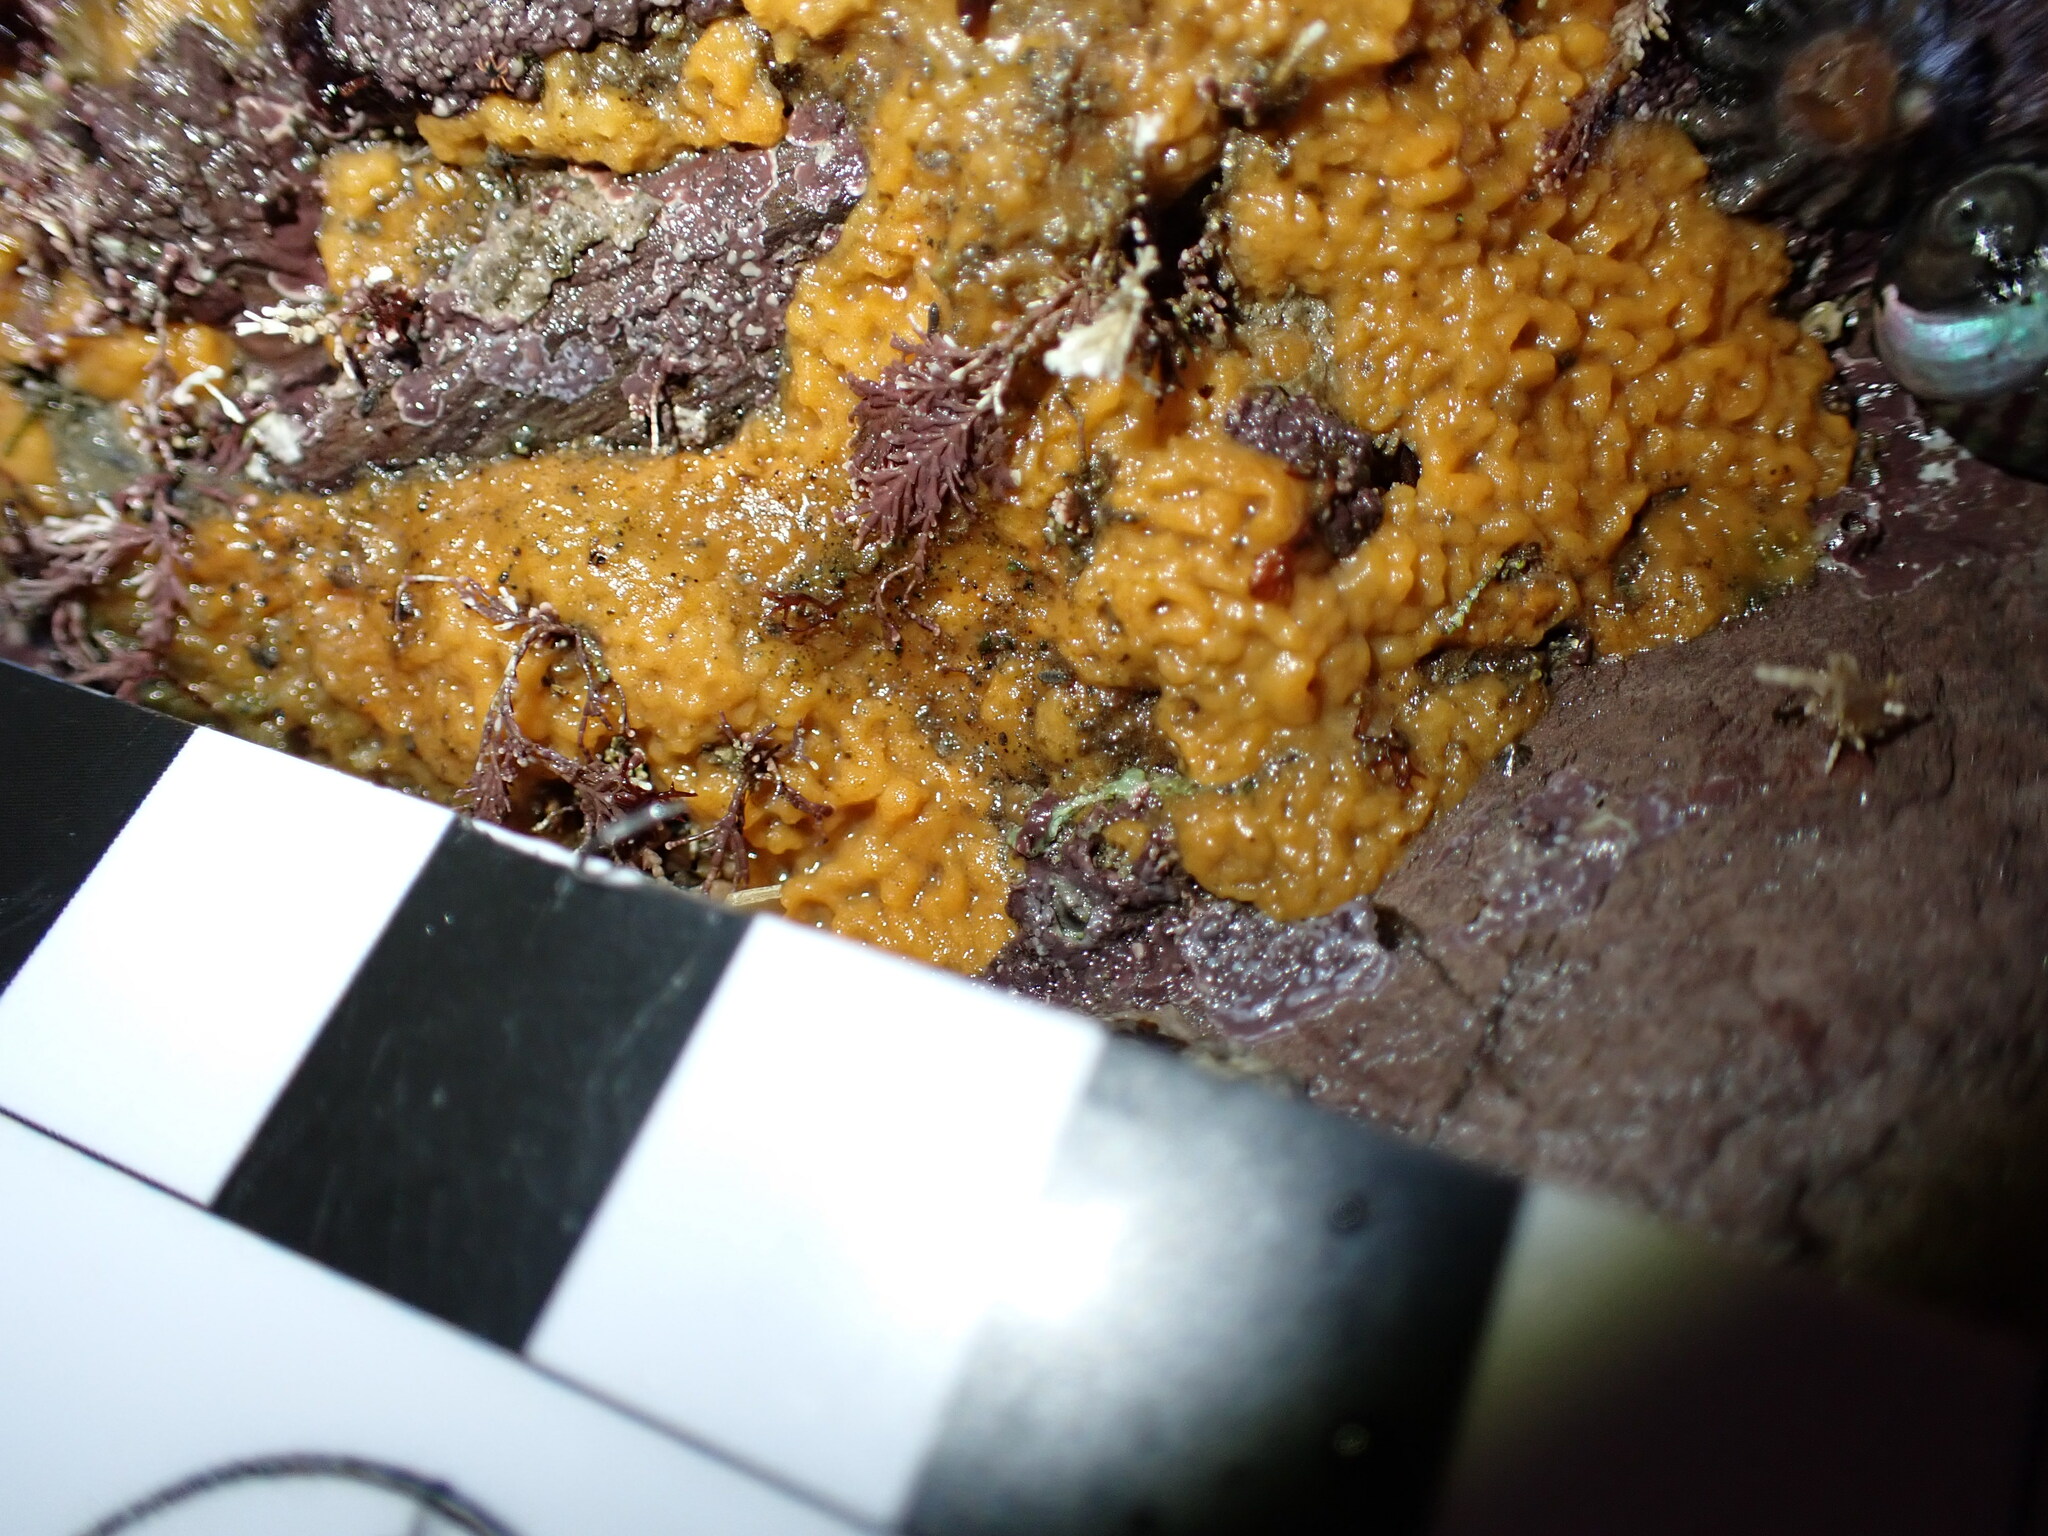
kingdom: Animalia
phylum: Porifera
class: Demospongiae
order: Suberitida
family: Halichondriidae
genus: Hymeniacidon
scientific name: Hymeniacidon perlevis
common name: Crumb-of-bread sponge
